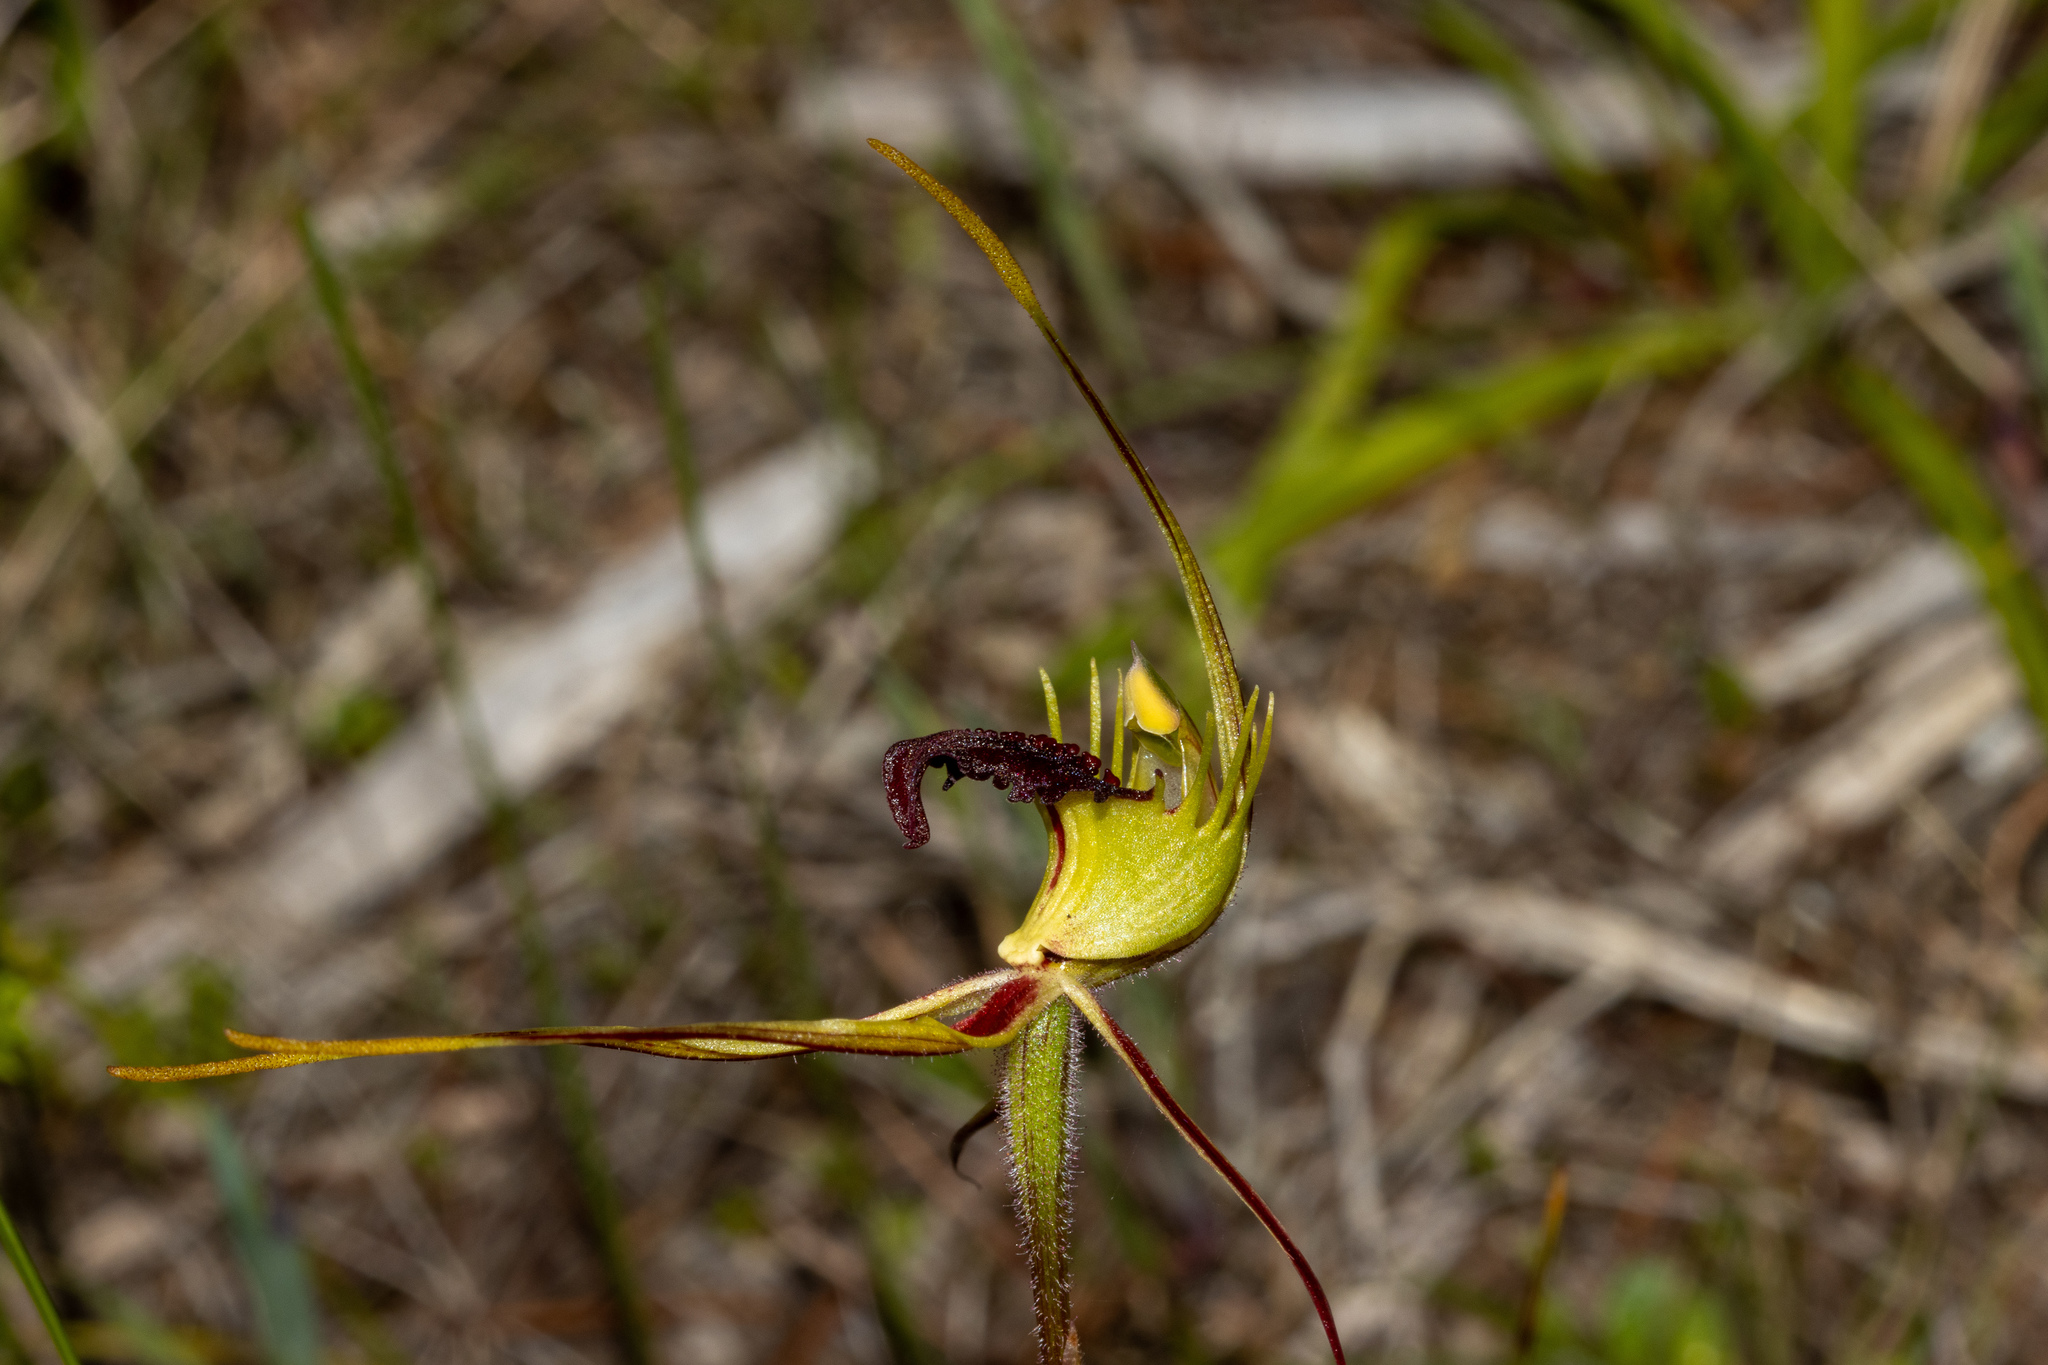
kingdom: Plantae
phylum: Tracheophyta
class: Liliopsida
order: Asparagales
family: Orchidaceae
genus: Caladenia
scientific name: Caladenia septuosa
